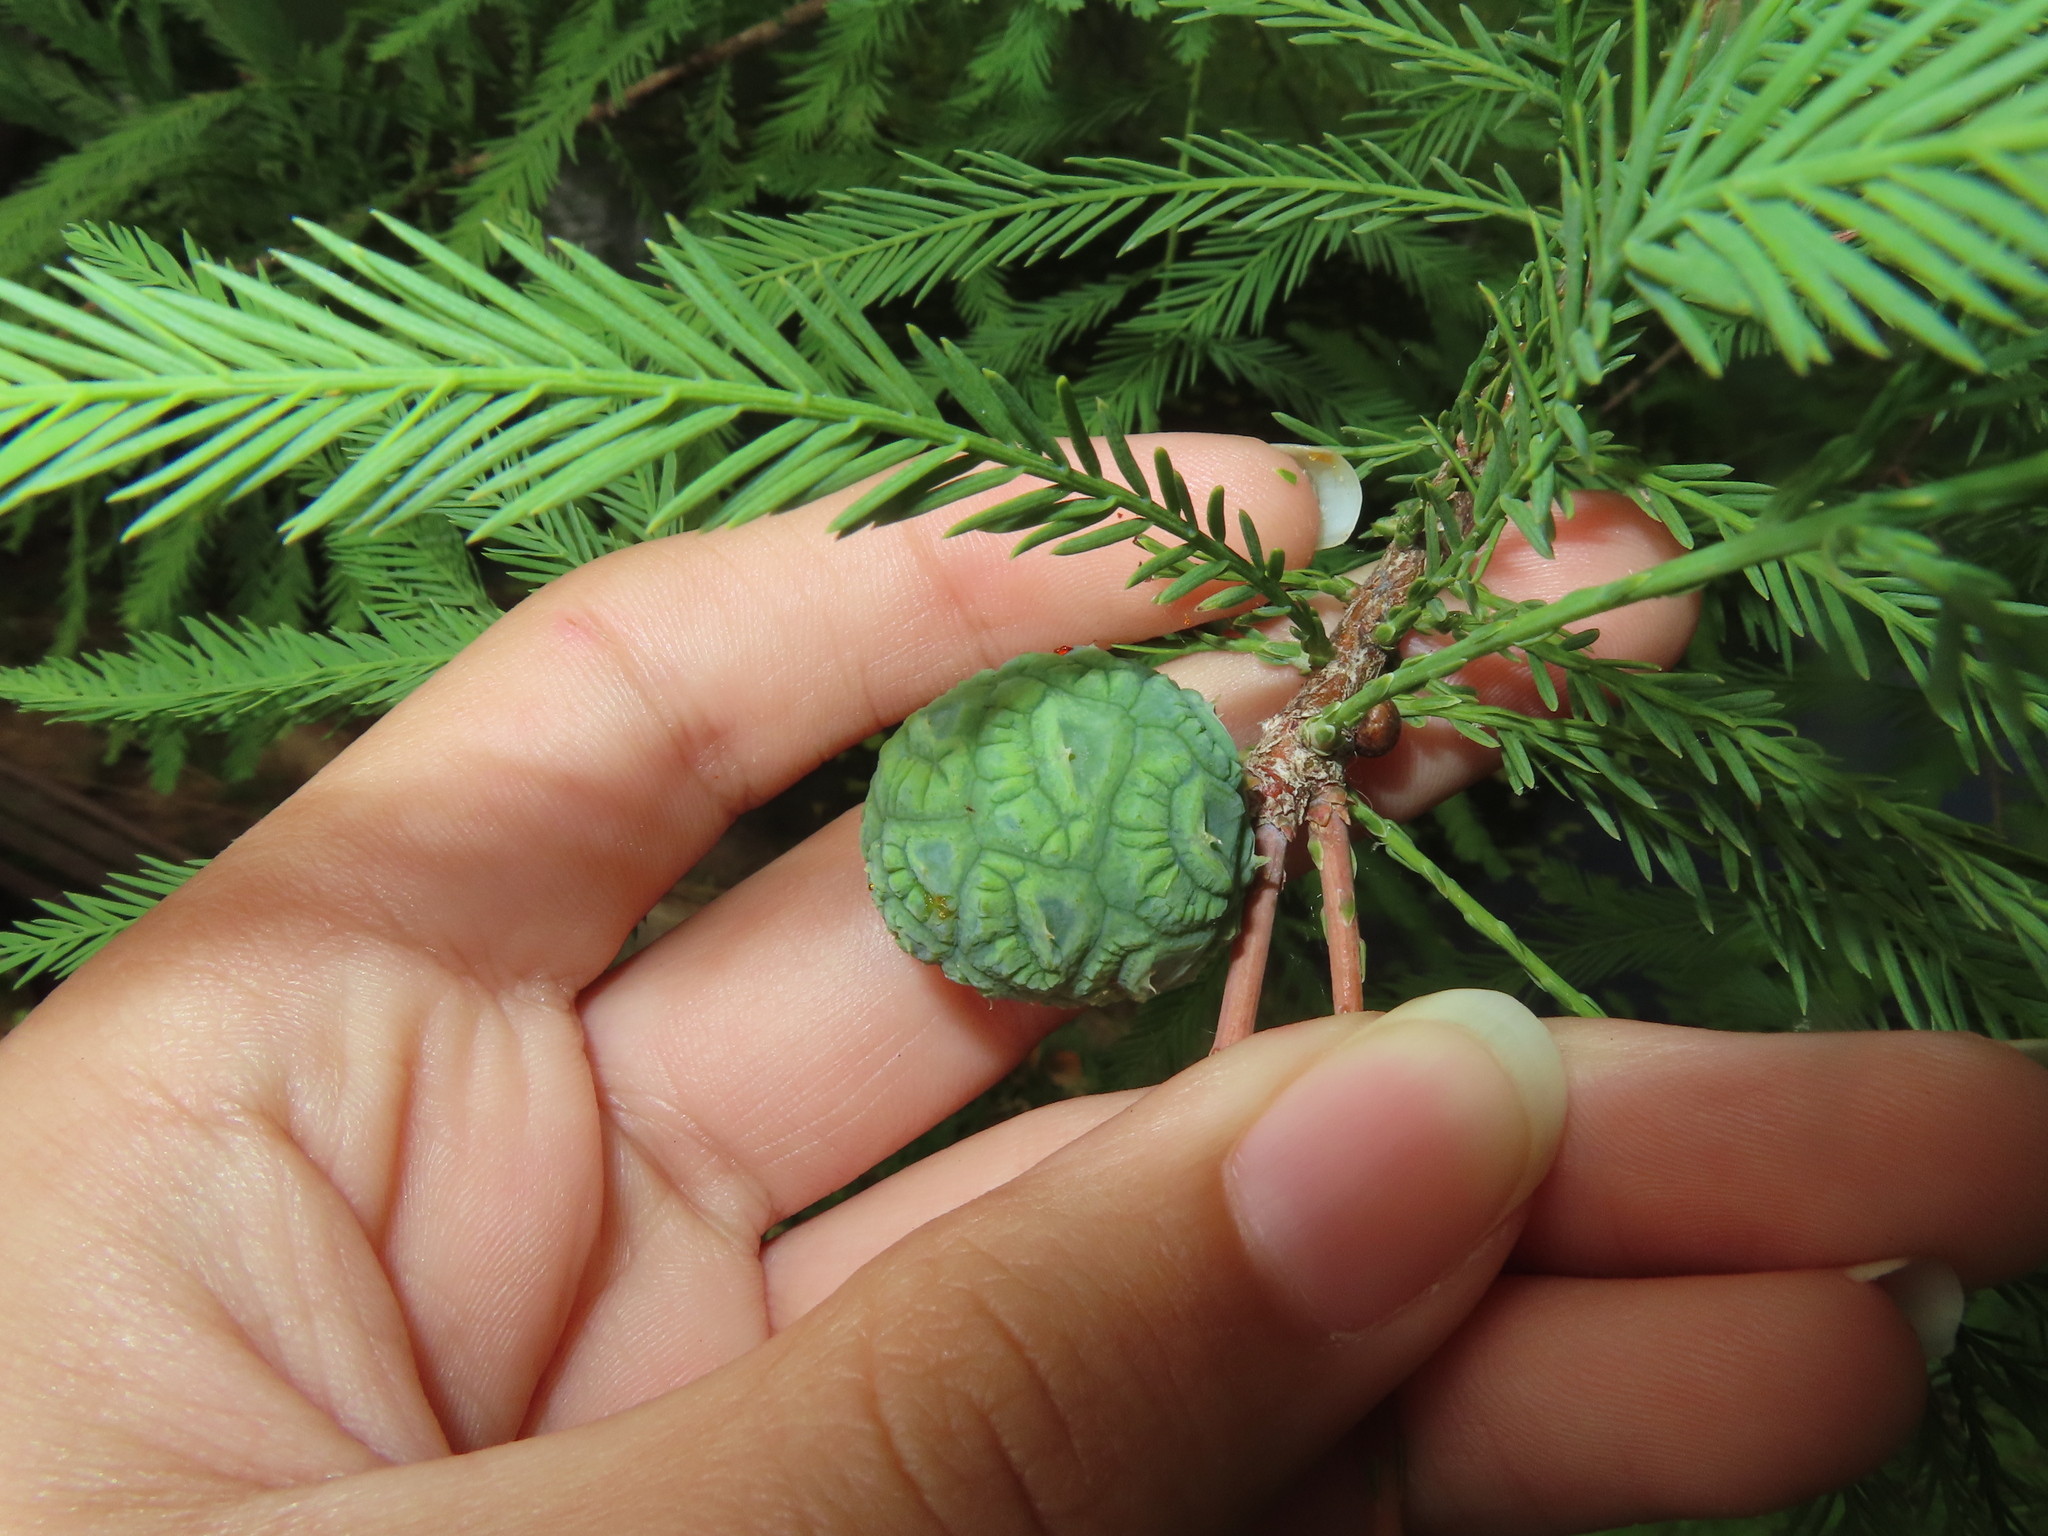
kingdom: Plantae
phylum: Tracheophyta
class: Pinopsida
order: Pinales
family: Cupressaceae
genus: Taxodium
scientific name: Taxodium distichum
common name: Bald cypress
